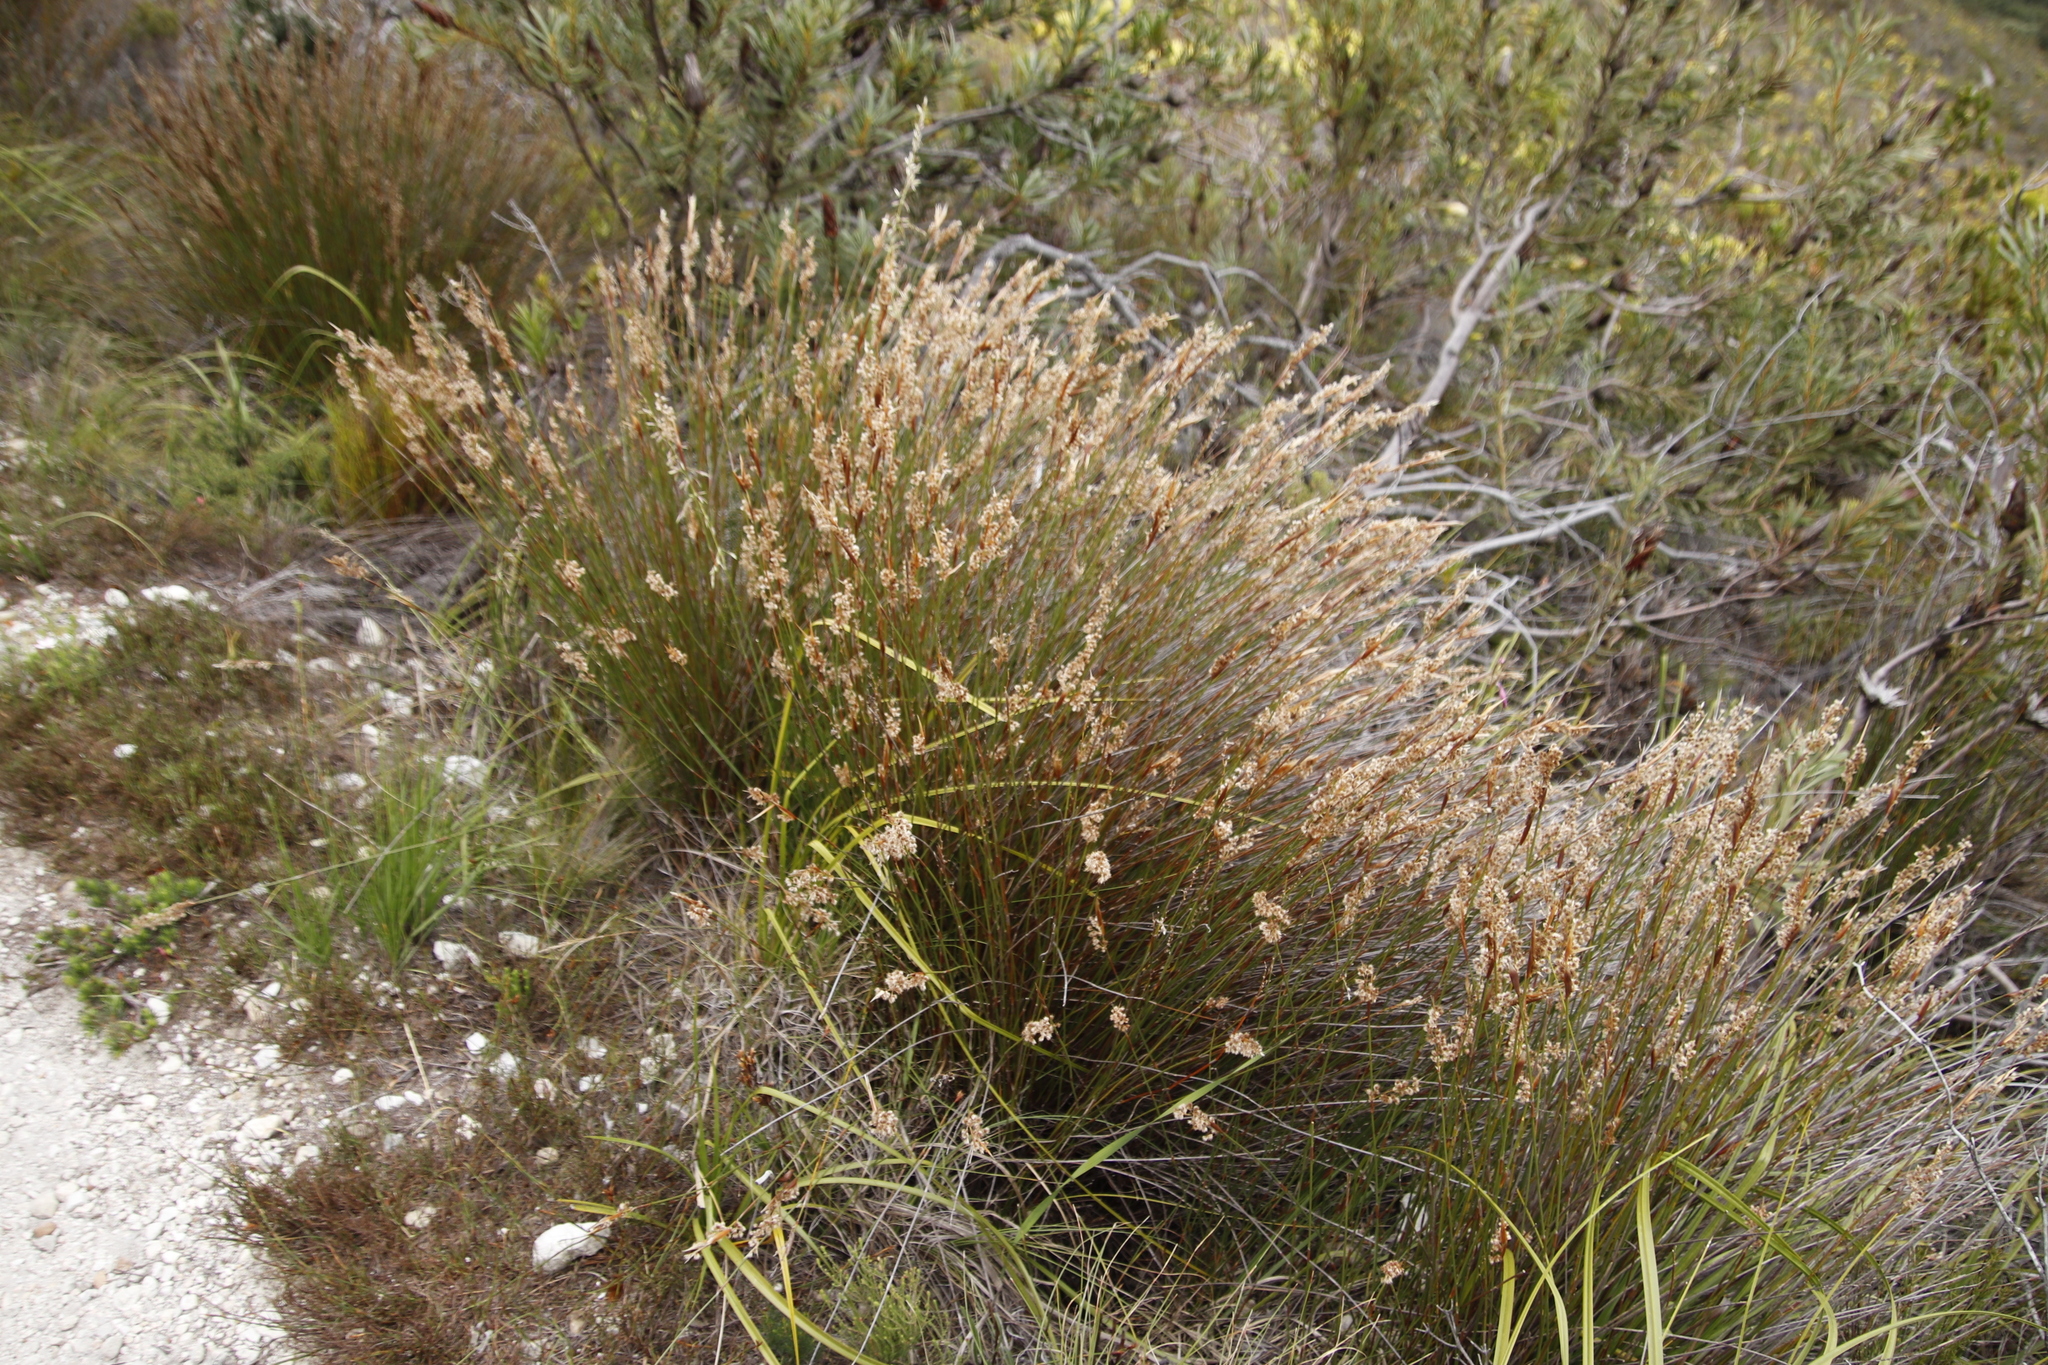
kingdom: Plantae
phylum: Tracheophyta
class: Liliopsida
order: Poales
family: Restionaceae
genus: Hypodiscus
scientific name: Hypodiscus argenteus
